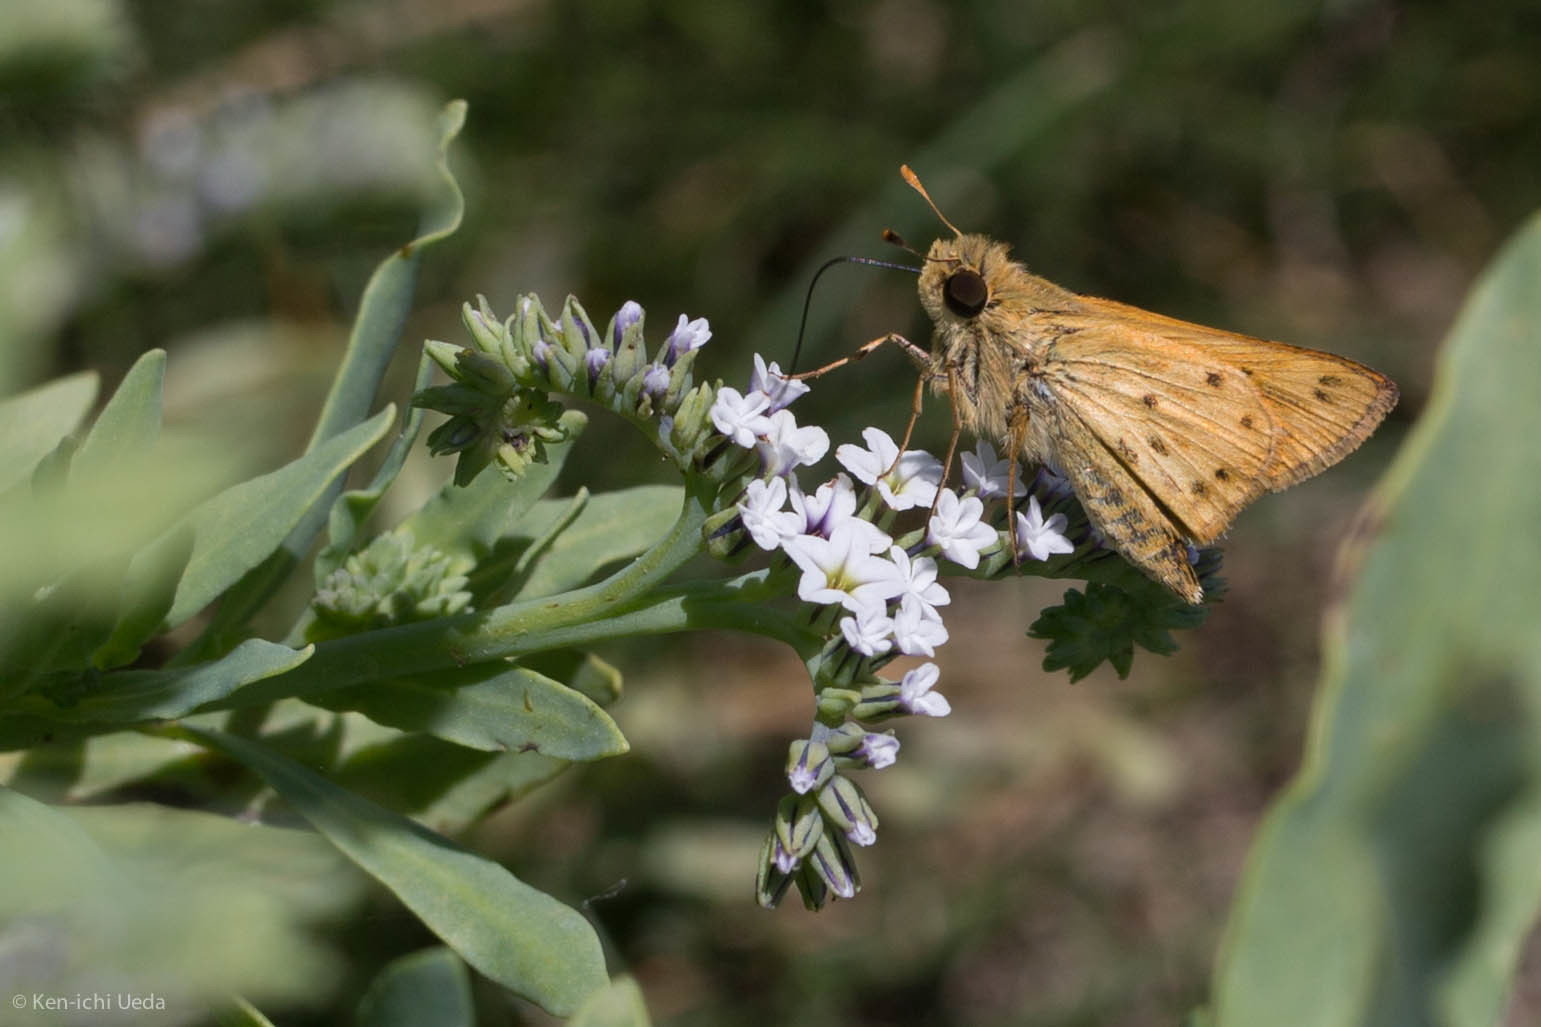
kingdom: Plantae
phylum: Tracheophyta
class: Magnoliopsida
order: Boraginales
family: Heliotropiaceae
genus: Heliotropium
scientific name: Heliotropium curassavicum
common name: Seaside heliotrope
